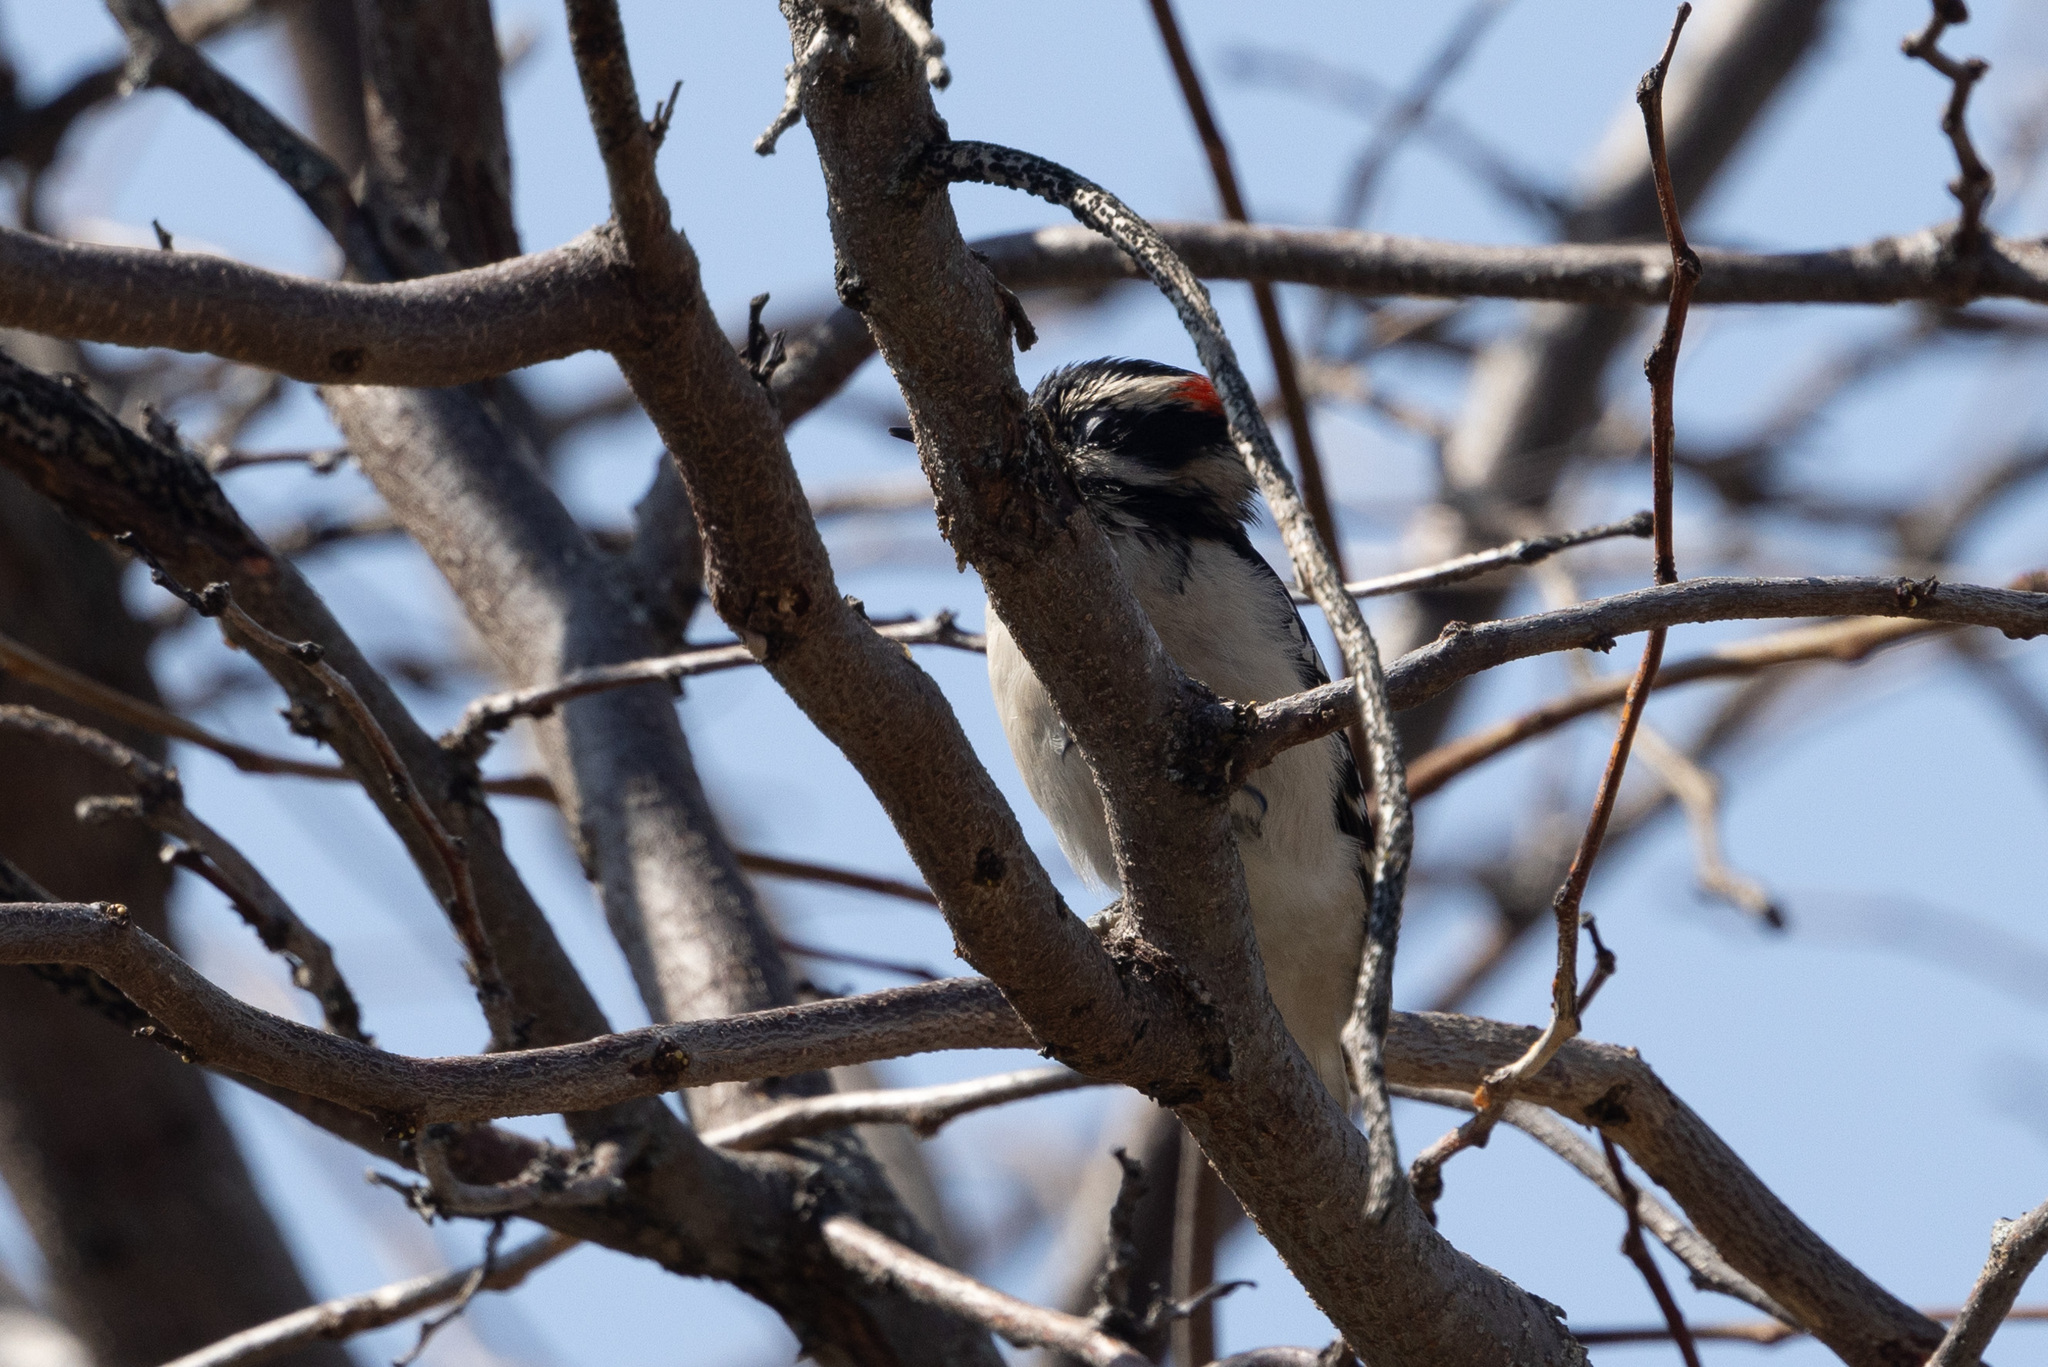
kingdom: Animalia
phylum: Chordata
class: Aves
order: Piciformes
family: Picidae
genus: Leuconotopicus
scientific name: Leuconotopicus villosus
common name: Hairy woodpecker
